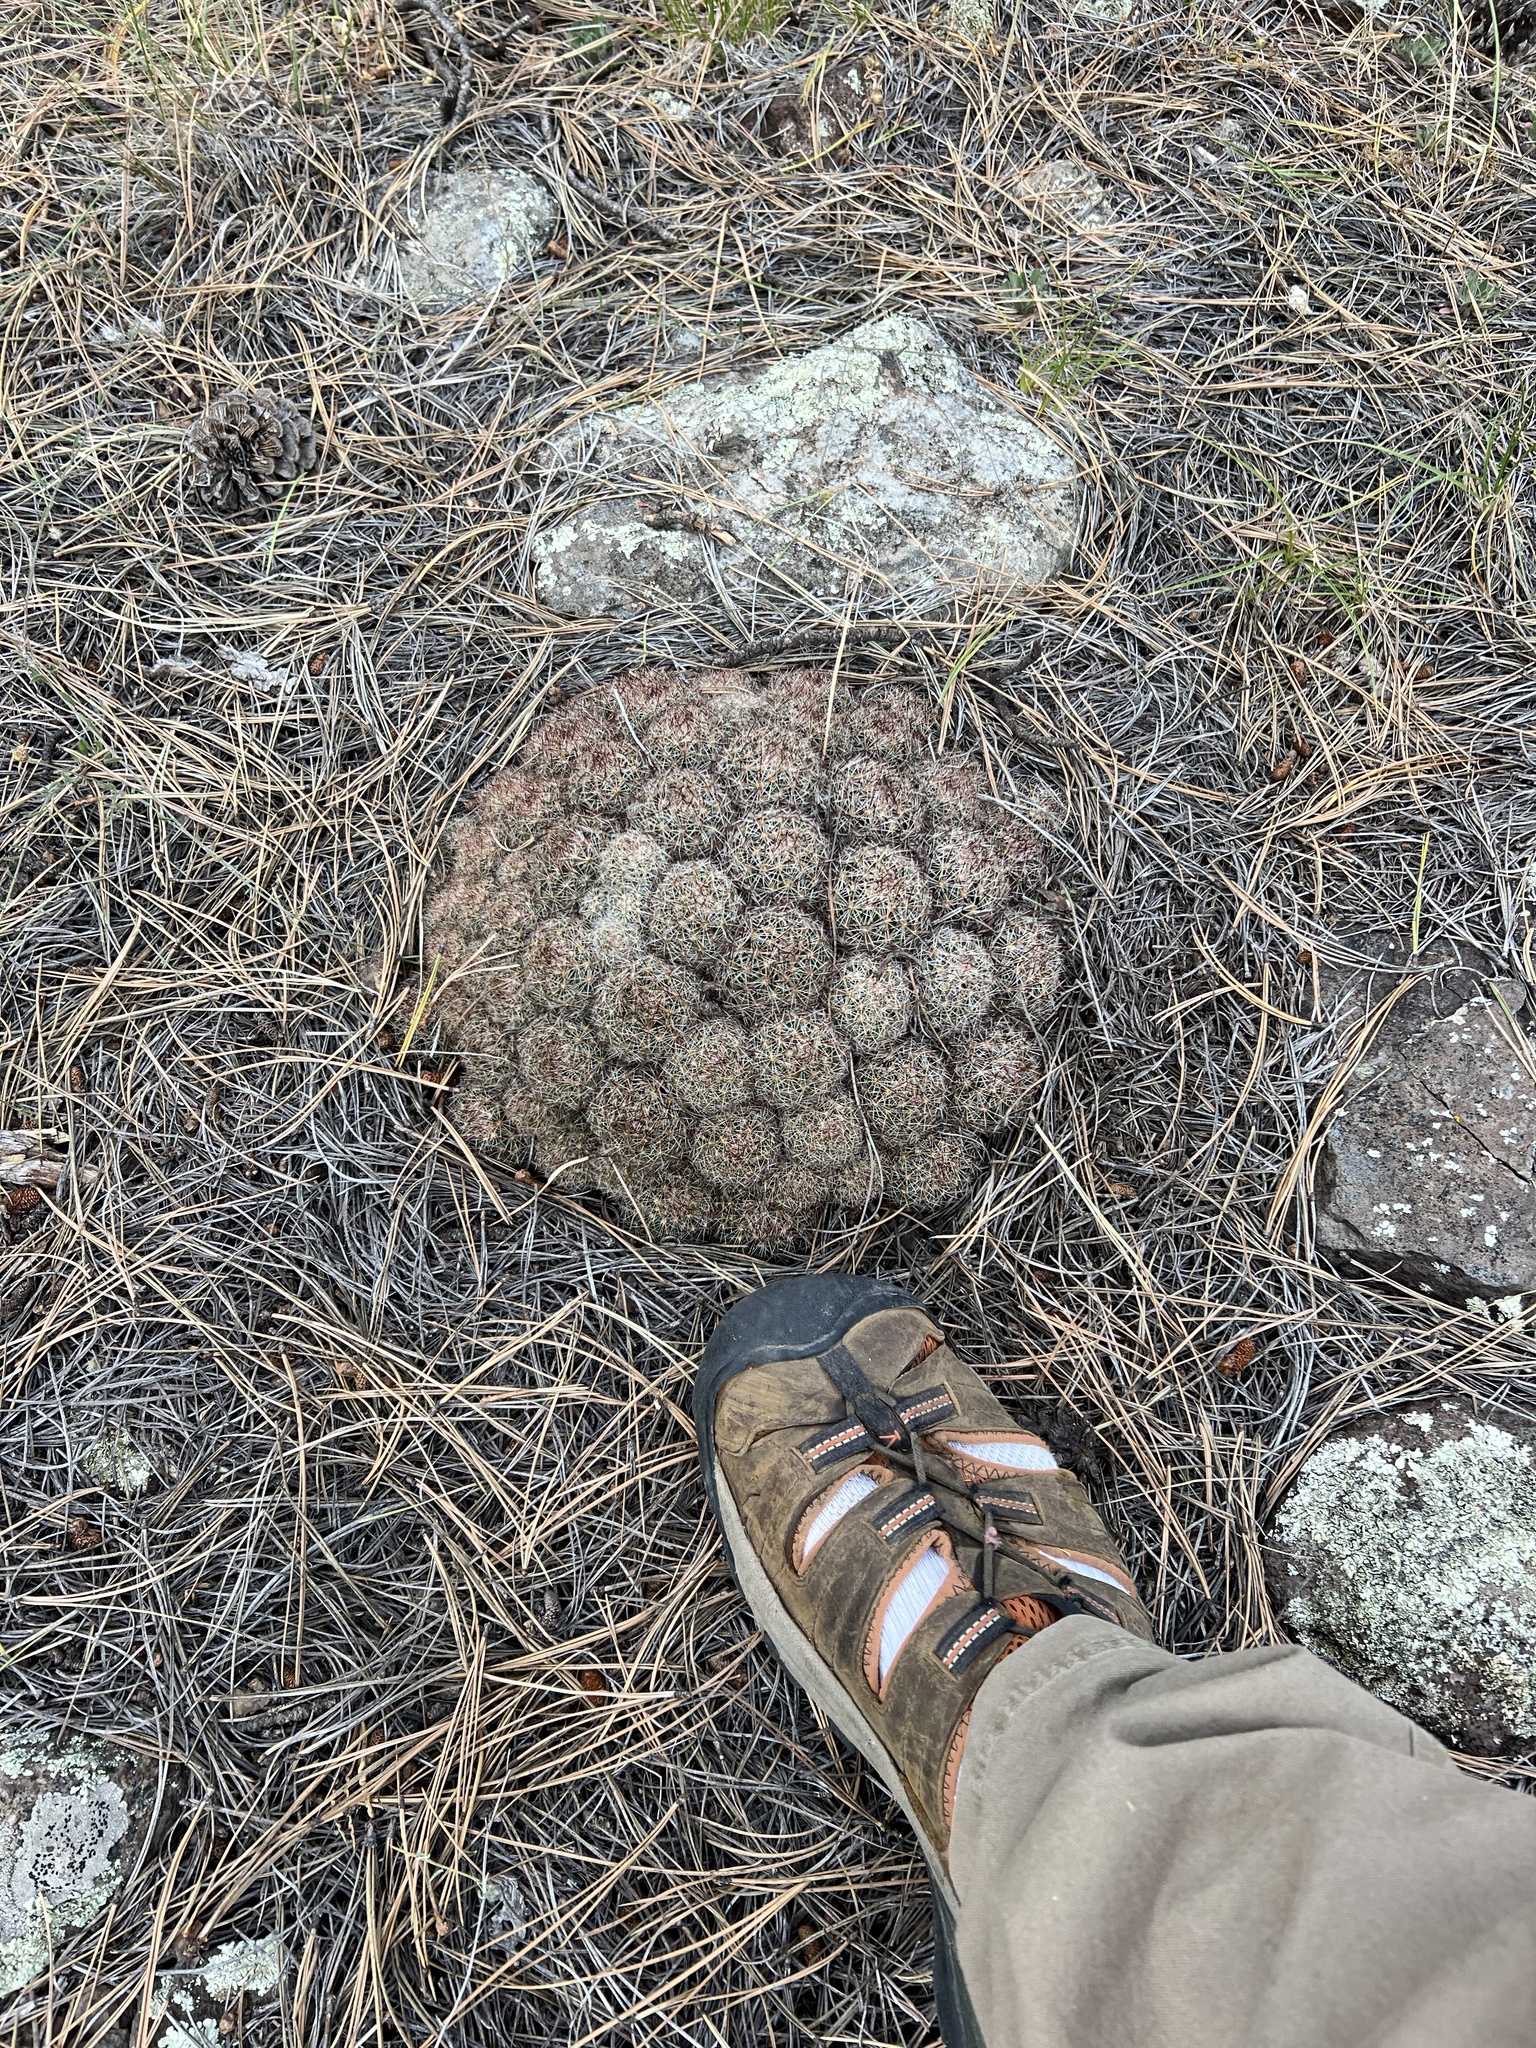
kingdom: Plantae
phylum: Tracheophyta
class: Magnoliopsida
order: Caryophyllales
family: Cactaceae
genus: Pelecyphora
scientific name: Pelecyphora vivipara
